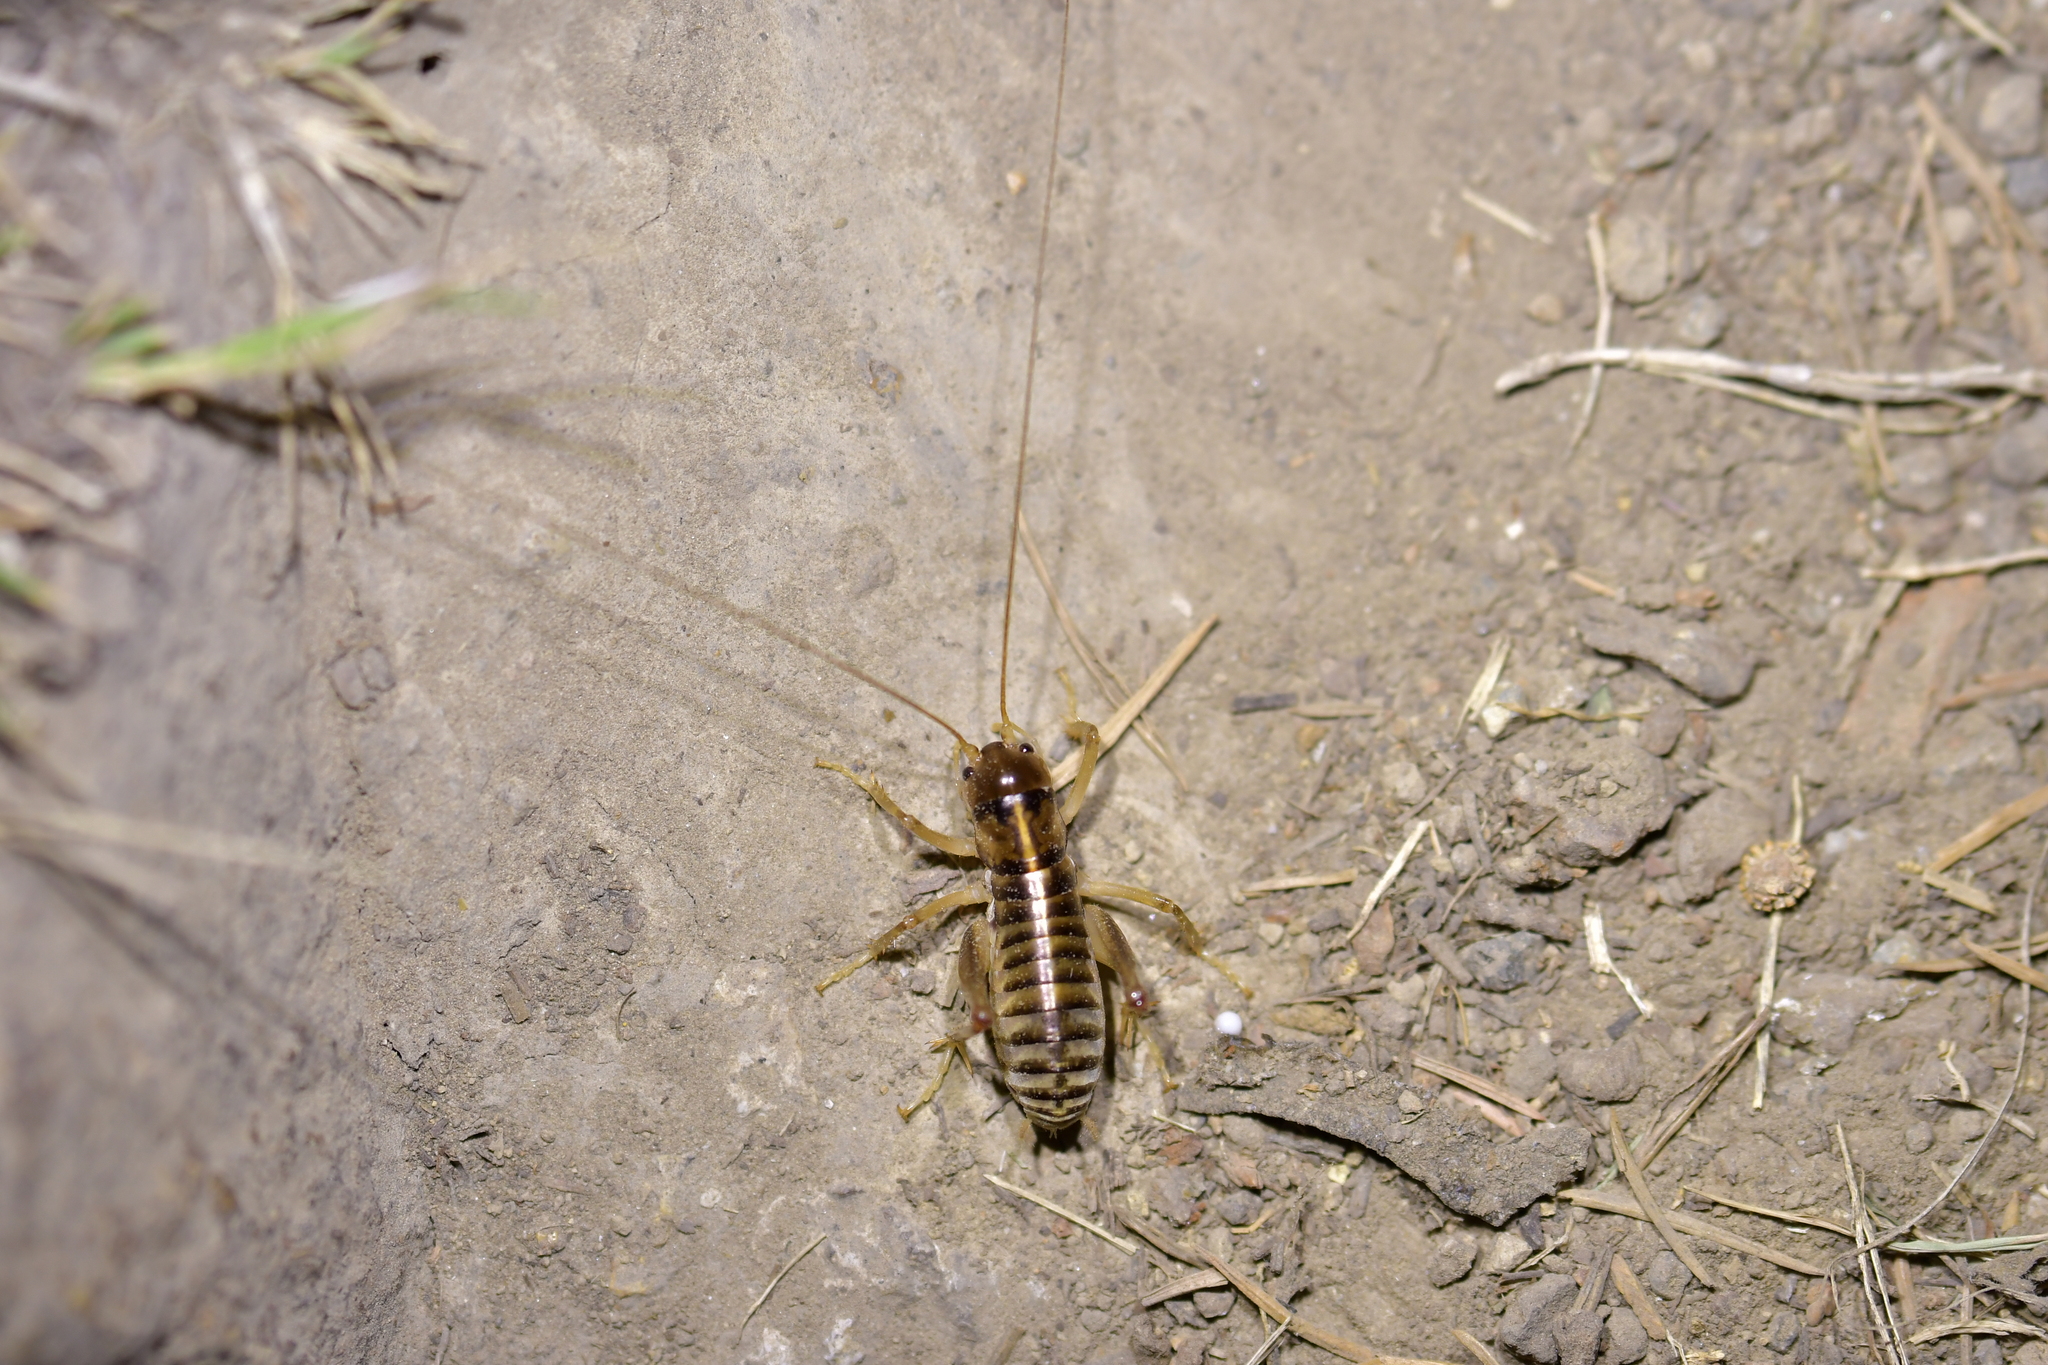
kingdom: Animalia
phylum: Arthropoda
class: Insecta
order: Orthoptera
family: Anostostomatidae
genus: Hemiandrus
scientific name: Hemiandrus celaeno
